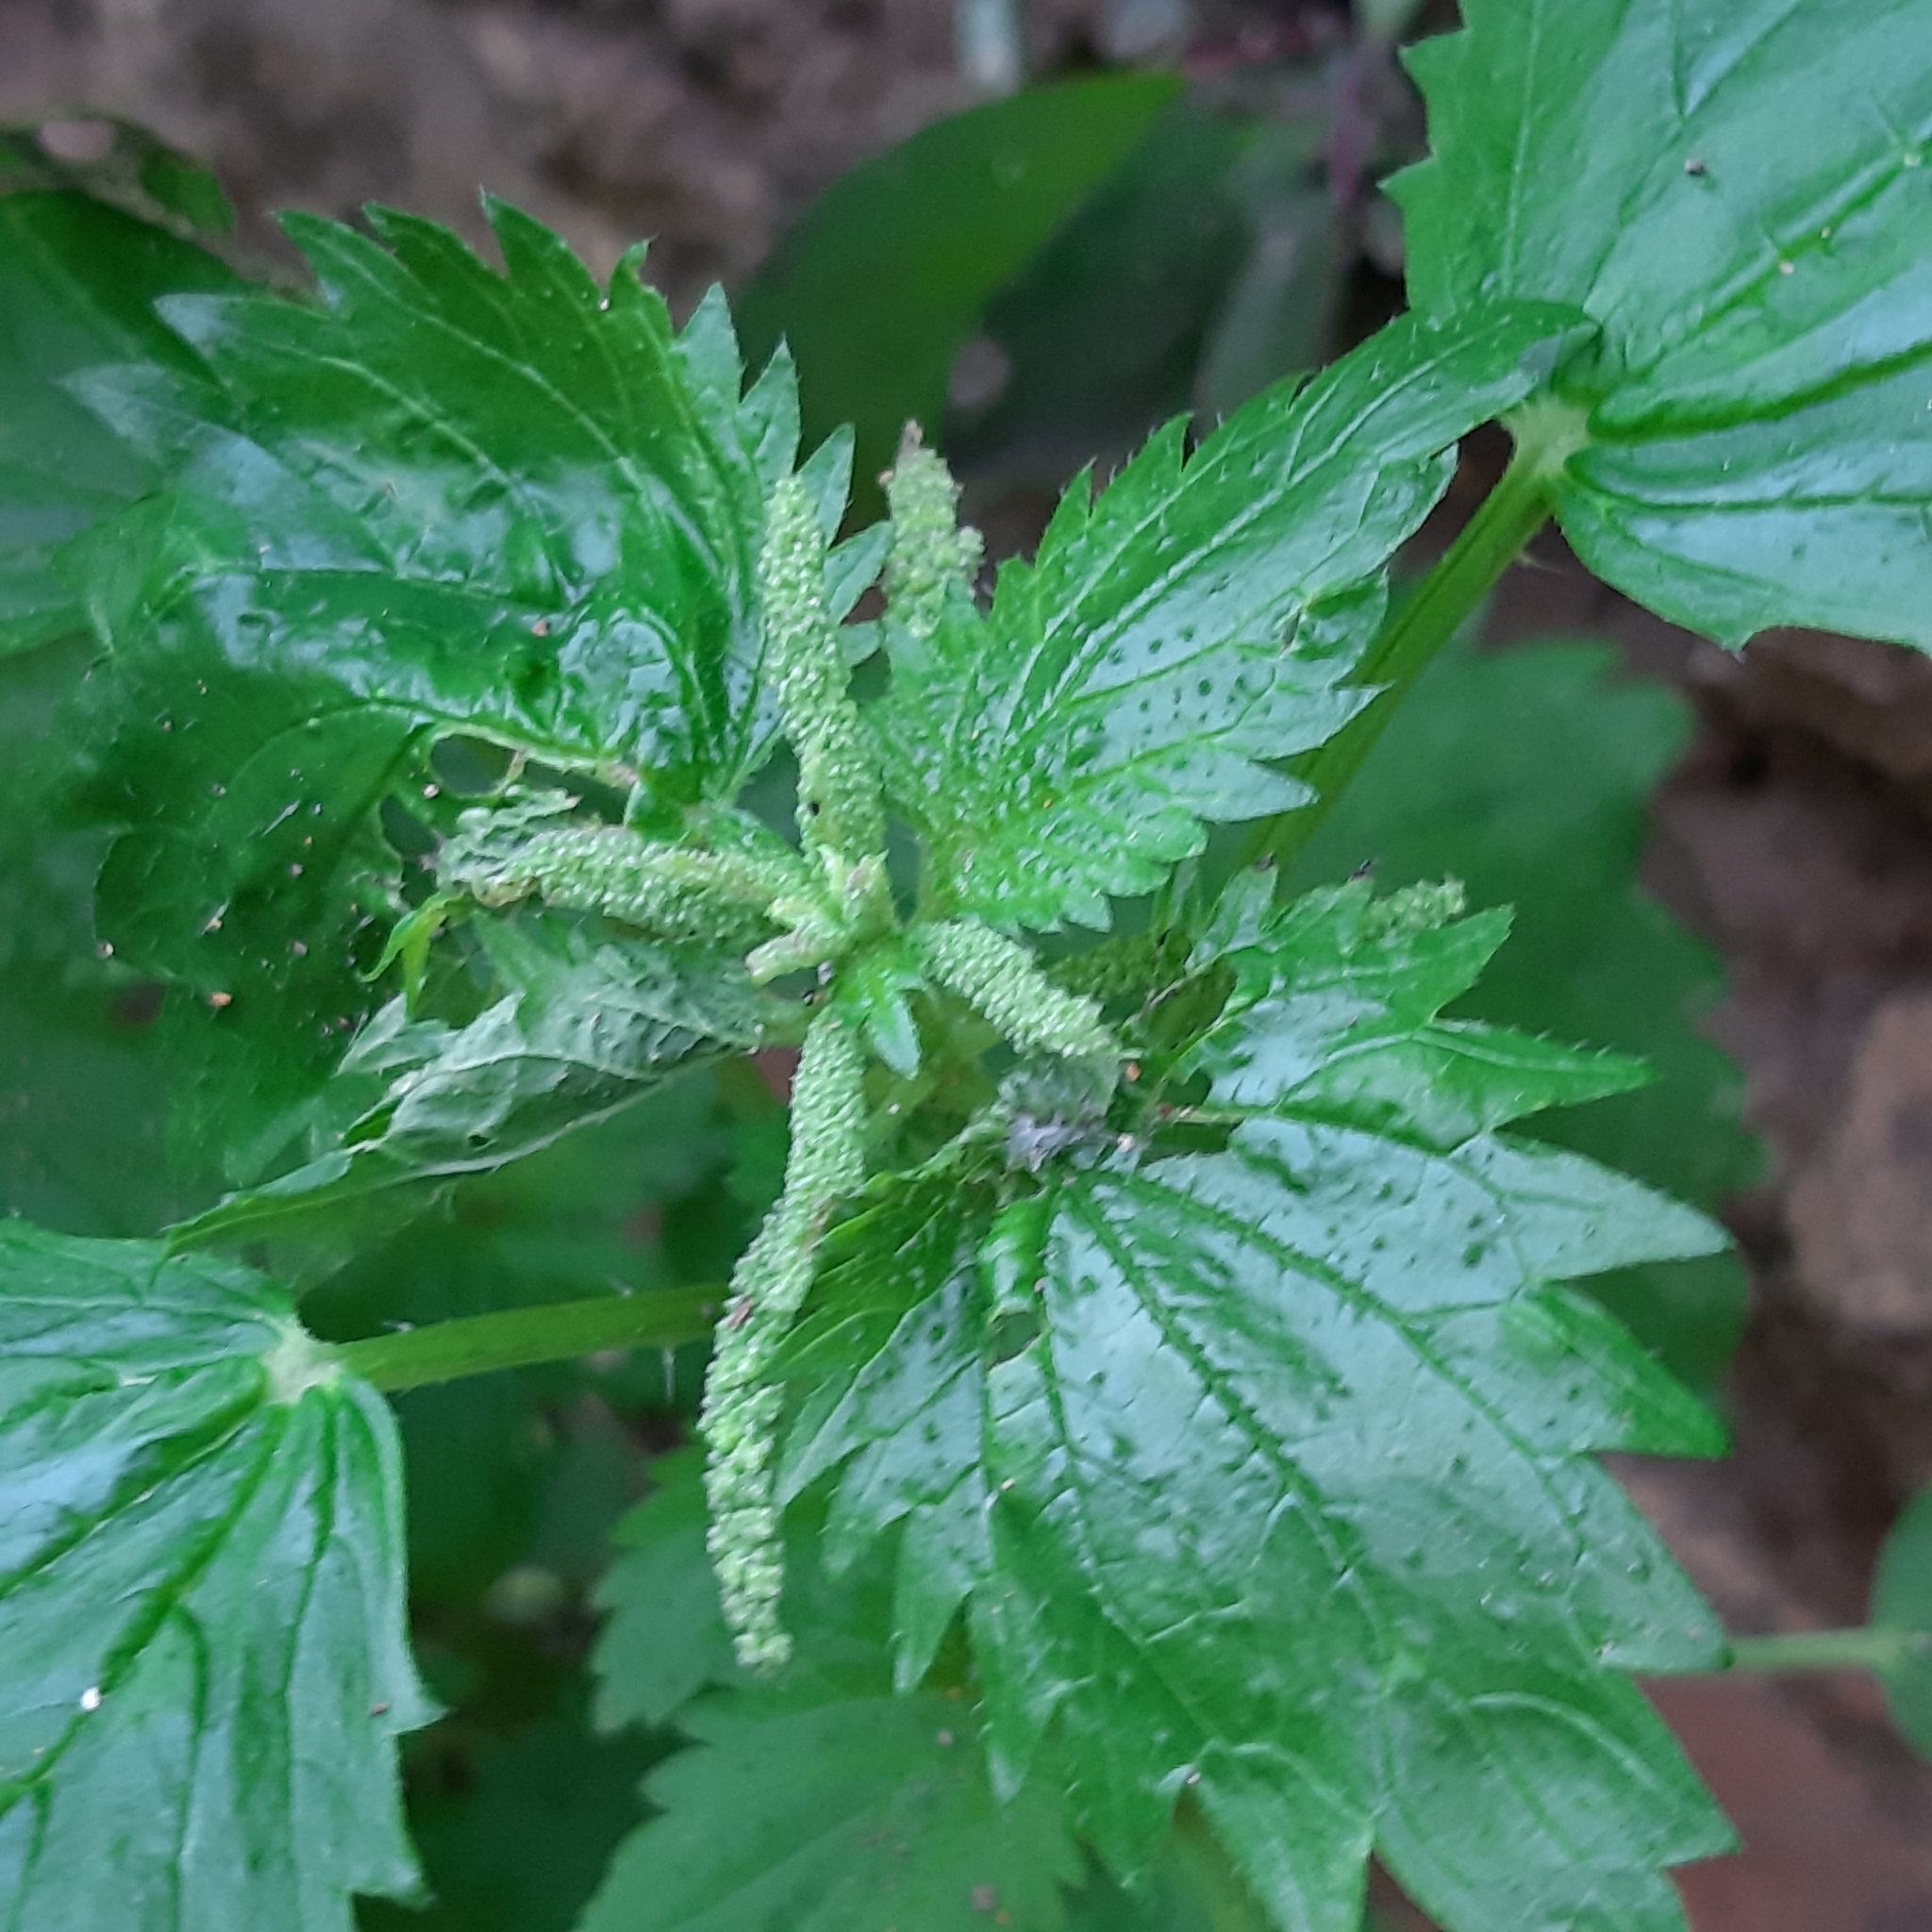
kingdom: Plantae
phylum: Tracheophyta
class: Magnoliopsida
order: Rosales
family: Urticaceae
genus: Urtica
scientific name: Urtica membranacea
